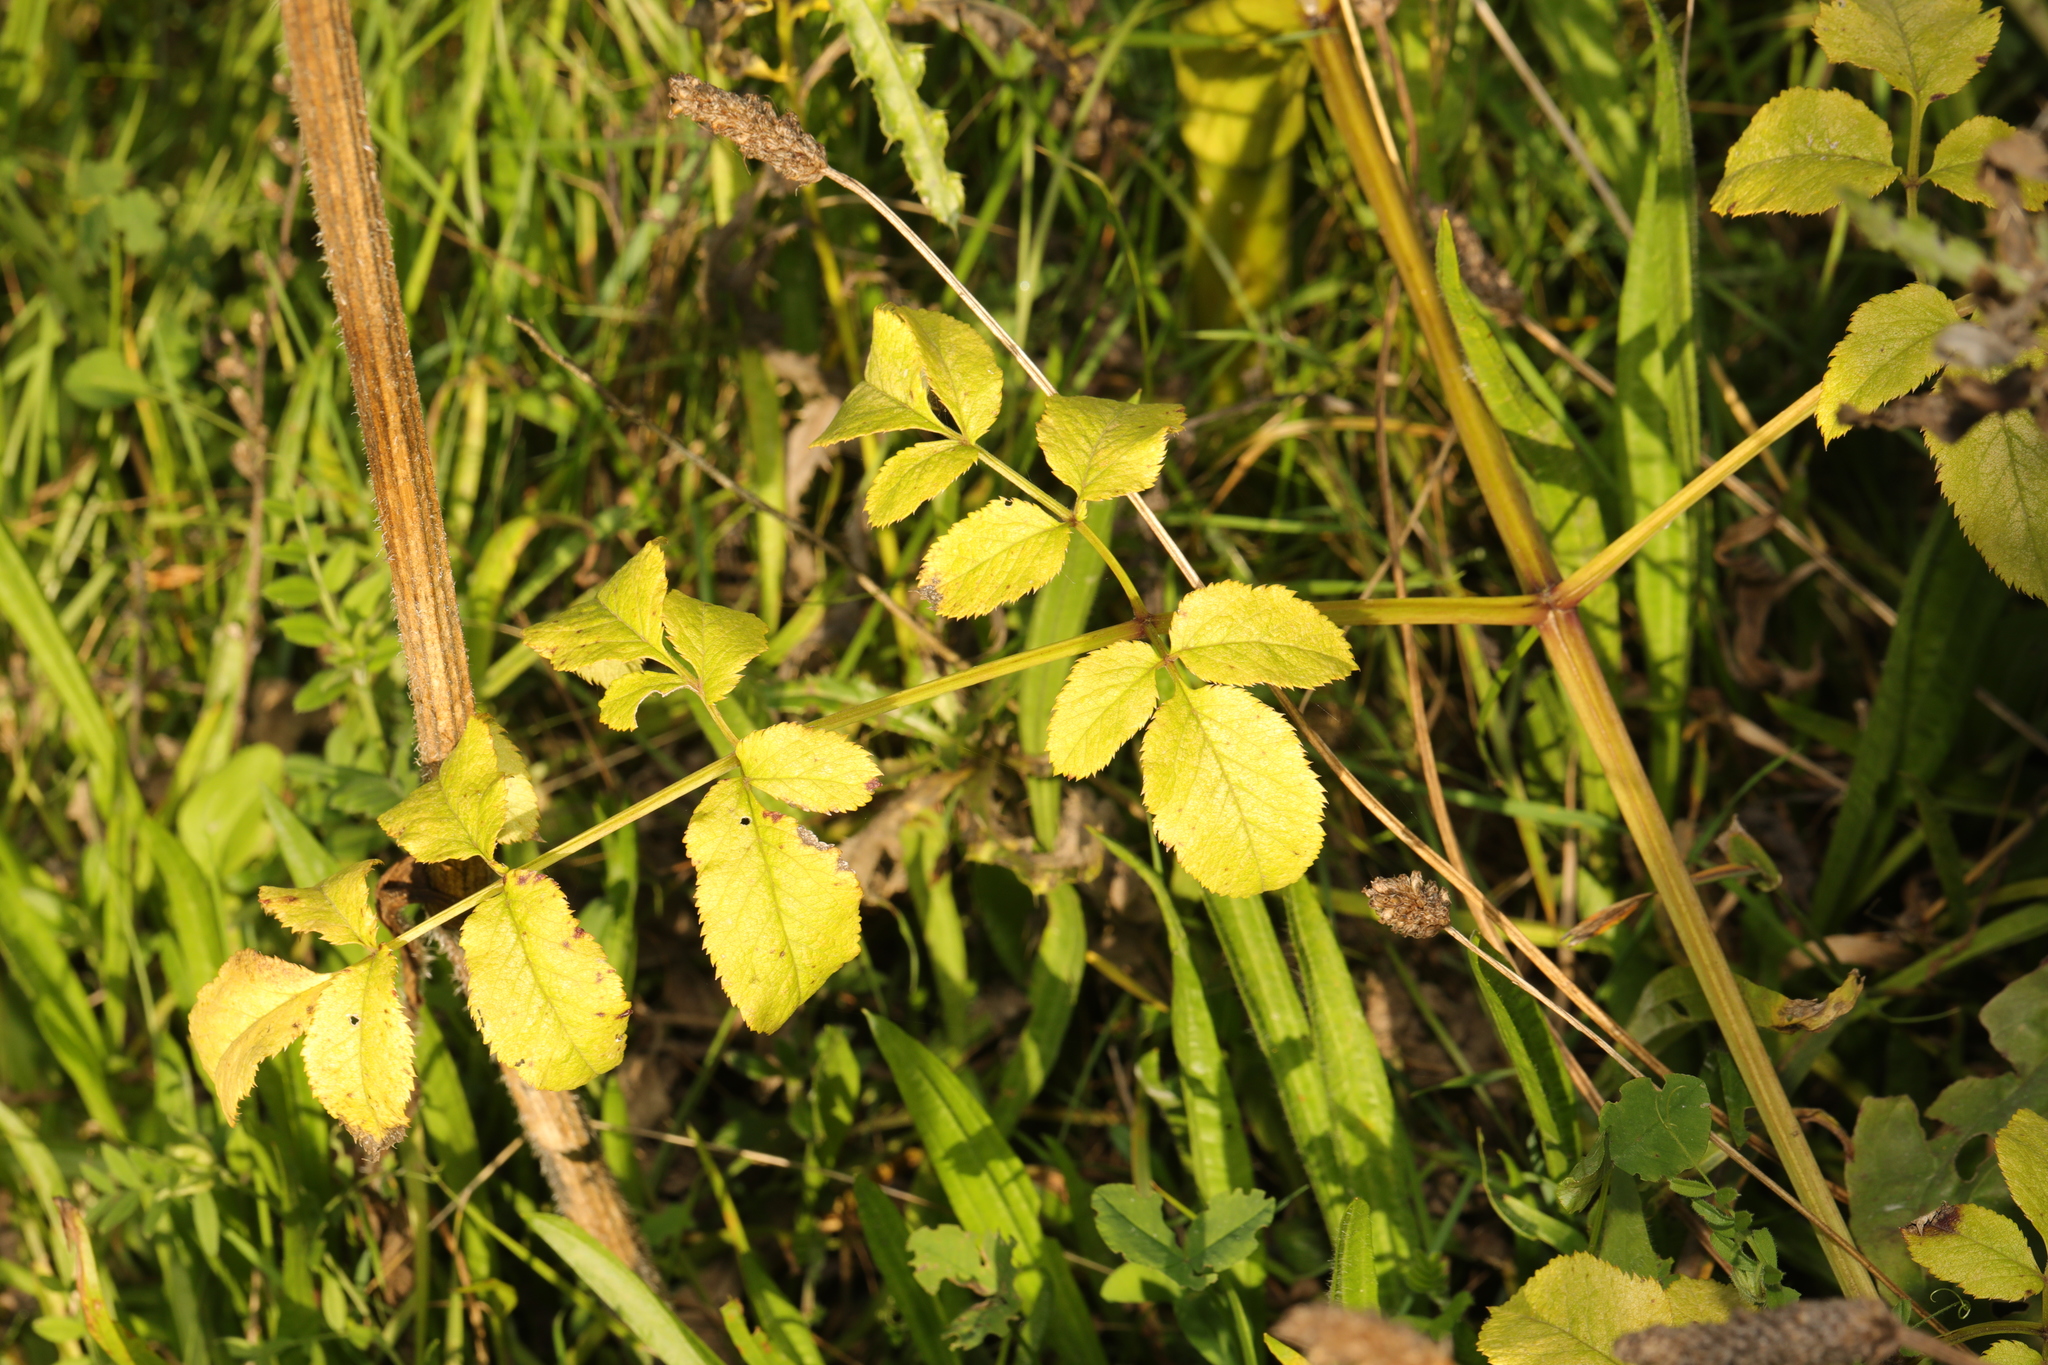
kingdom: Plantae
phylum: Tracheophyta
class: Magnoliopsida
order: Apiales
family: Apiaceae
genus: Angelica
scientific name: Angelica sylvestris
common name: Wild angelica
